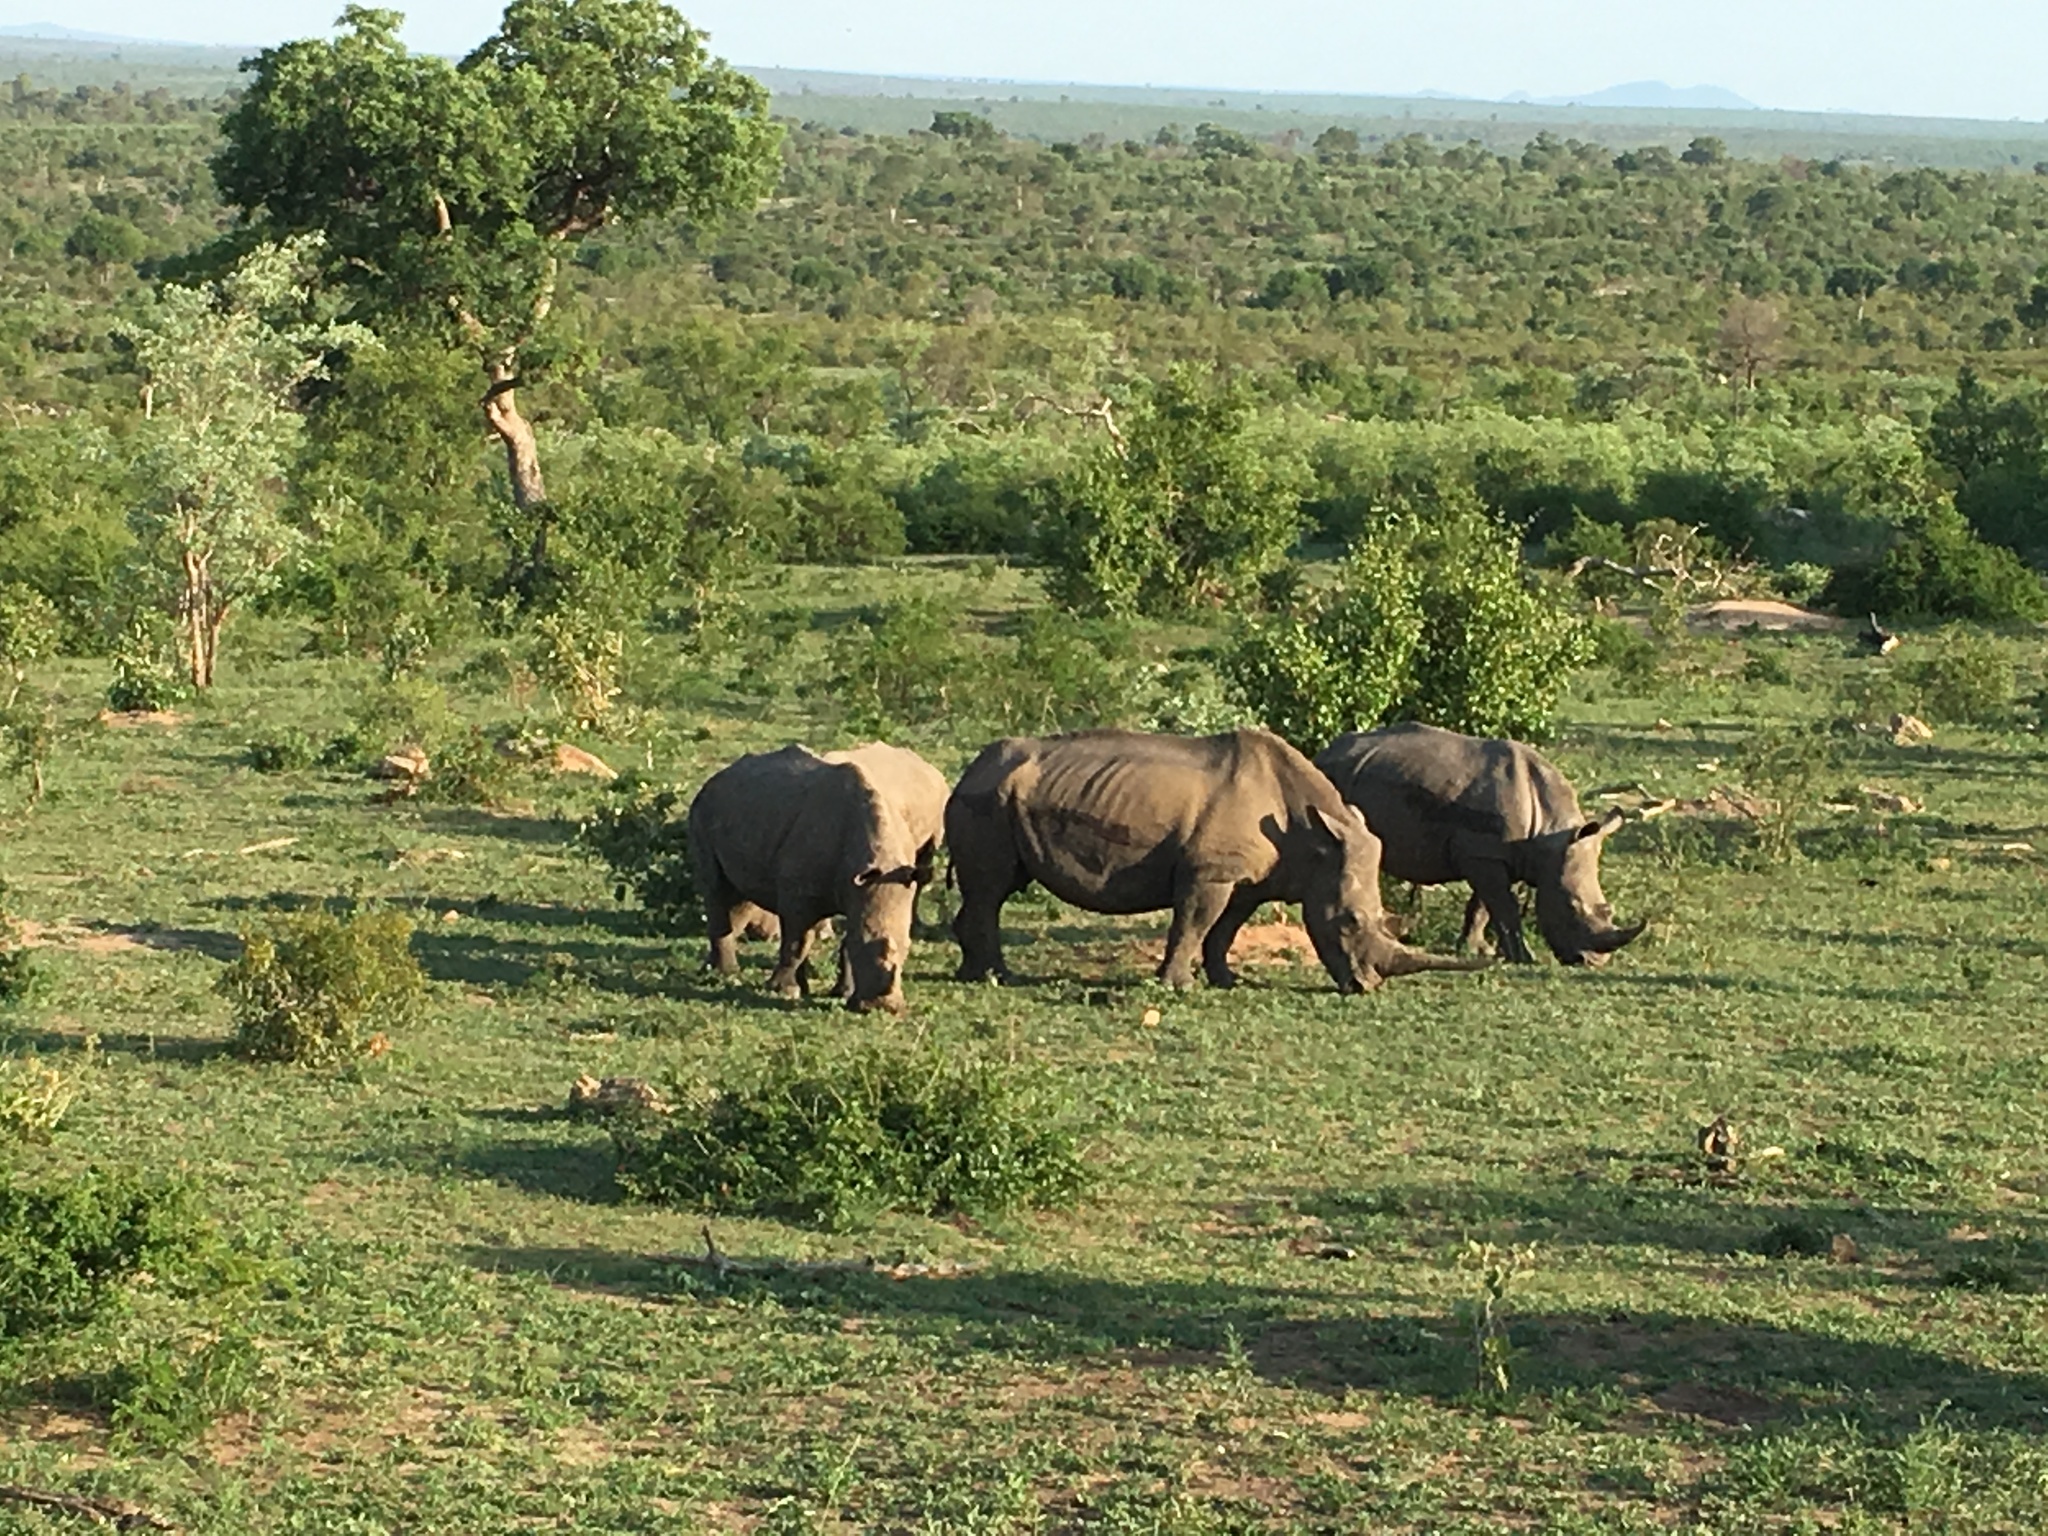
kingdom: Animalia
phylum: Chordata
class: Mammalia
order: Perissodactyla
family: Rhinocerotidae
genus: Ceratotherium
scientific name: Ceratotherium simum
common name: White rhinoceros
